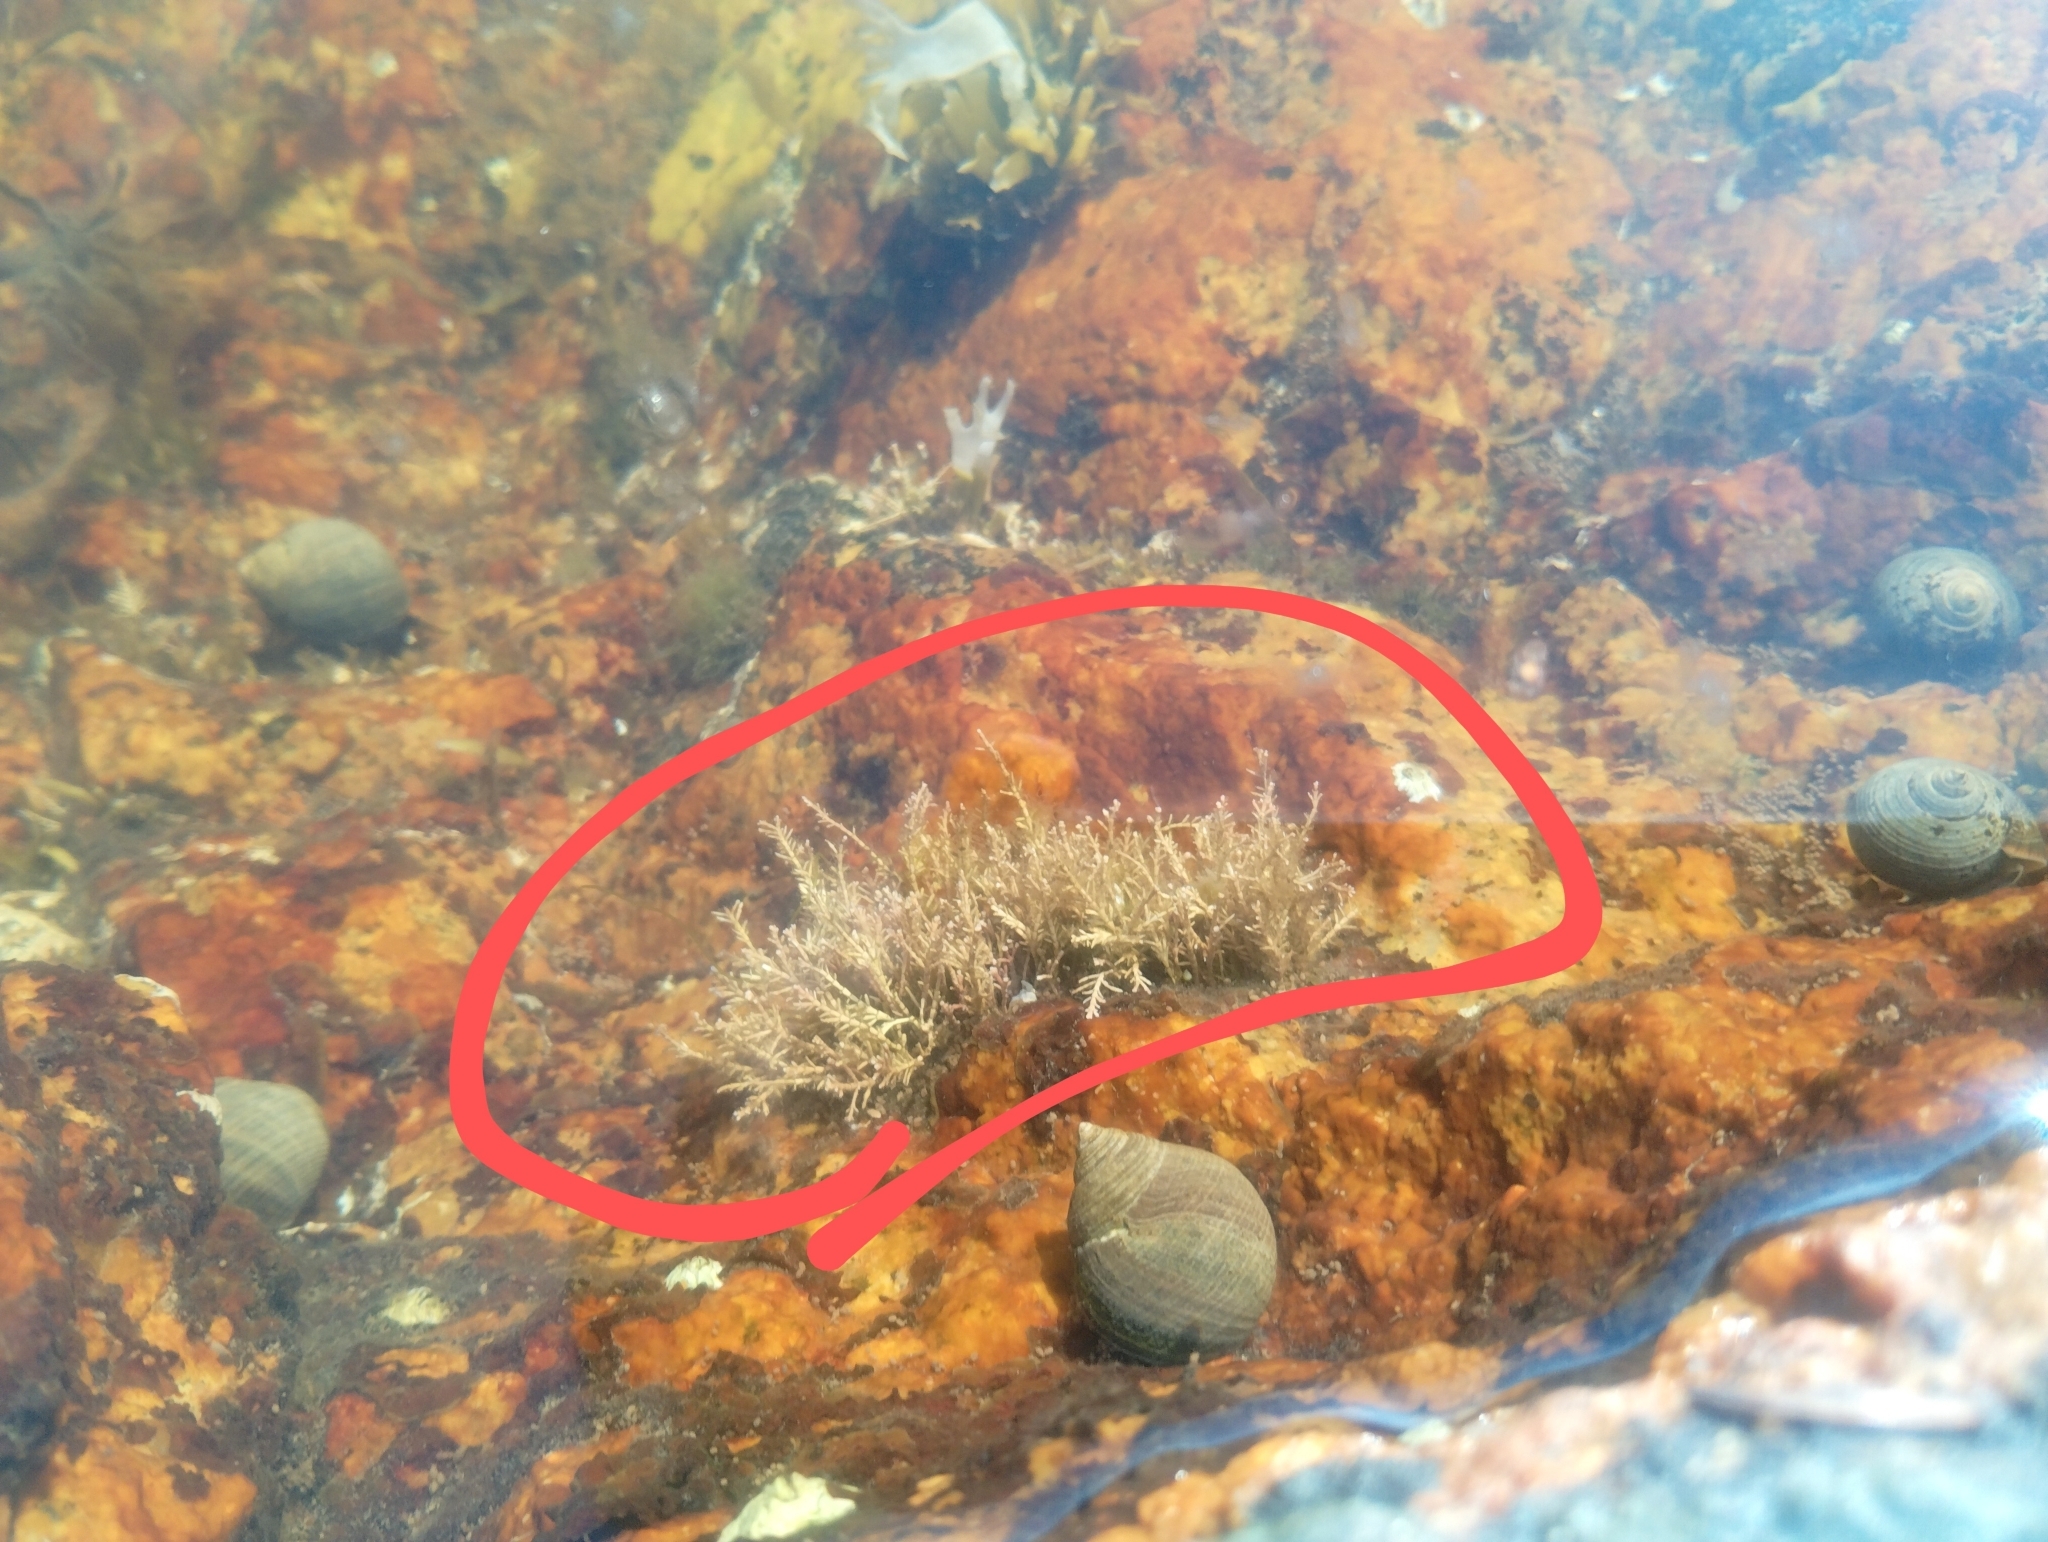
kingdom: Plantae
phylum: Rhodophyta
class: Florideophyceae
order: Corallinales
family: Corallinaceae
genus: Corallina
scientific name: Corallina officinalis
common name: Coral weed
